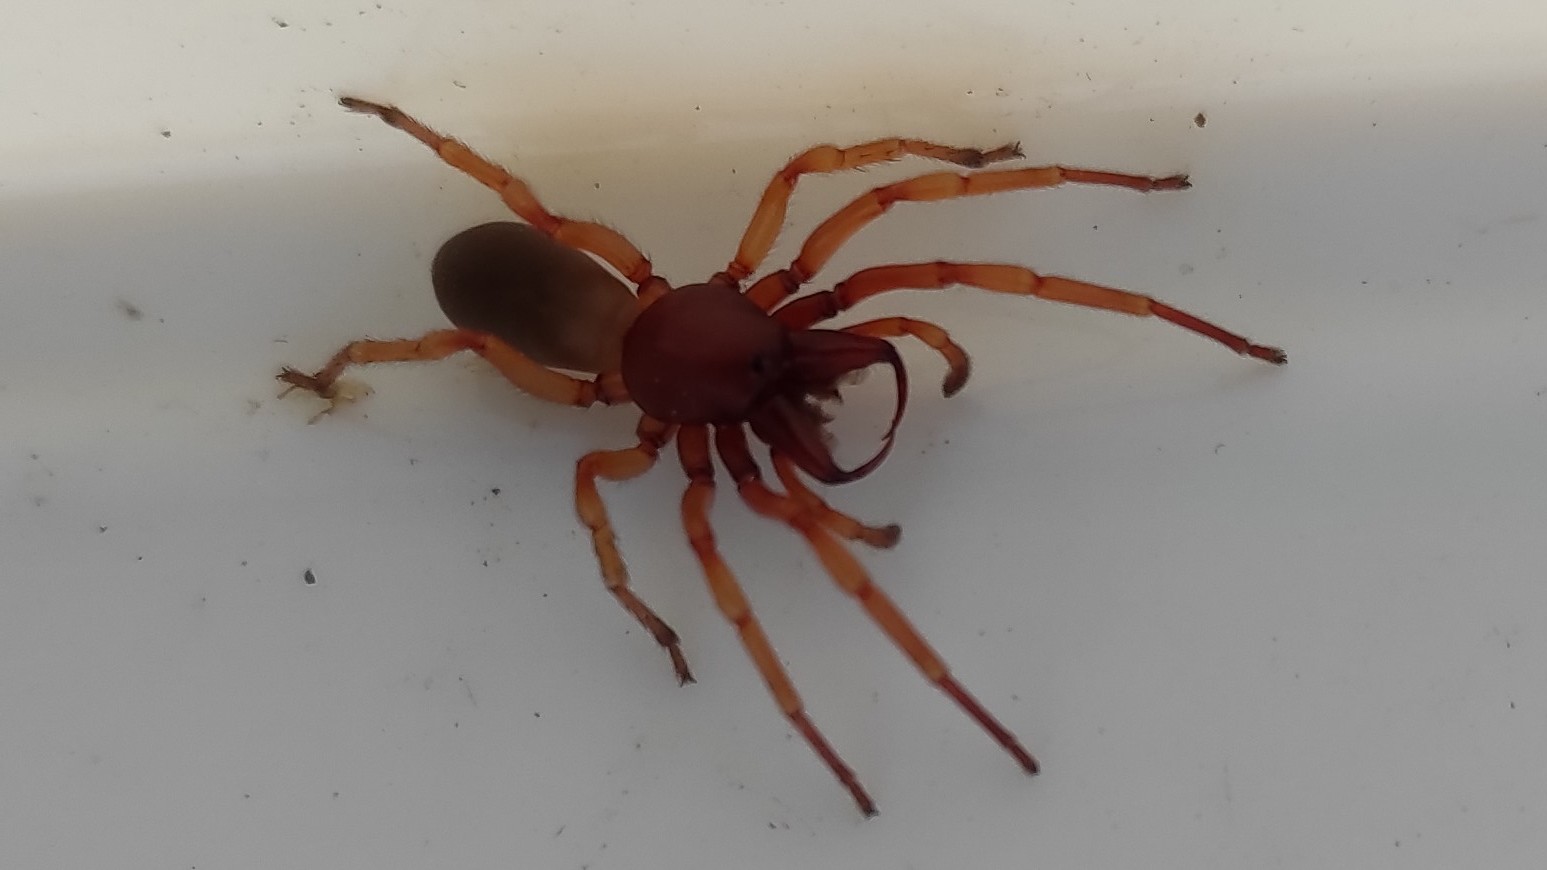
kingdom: Animalia
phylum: Arthropoda
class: Arachnida
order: Araneae
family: Dysderidae
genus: Dysdera
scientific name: Dysdera crocata
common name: Woodlouse spider
